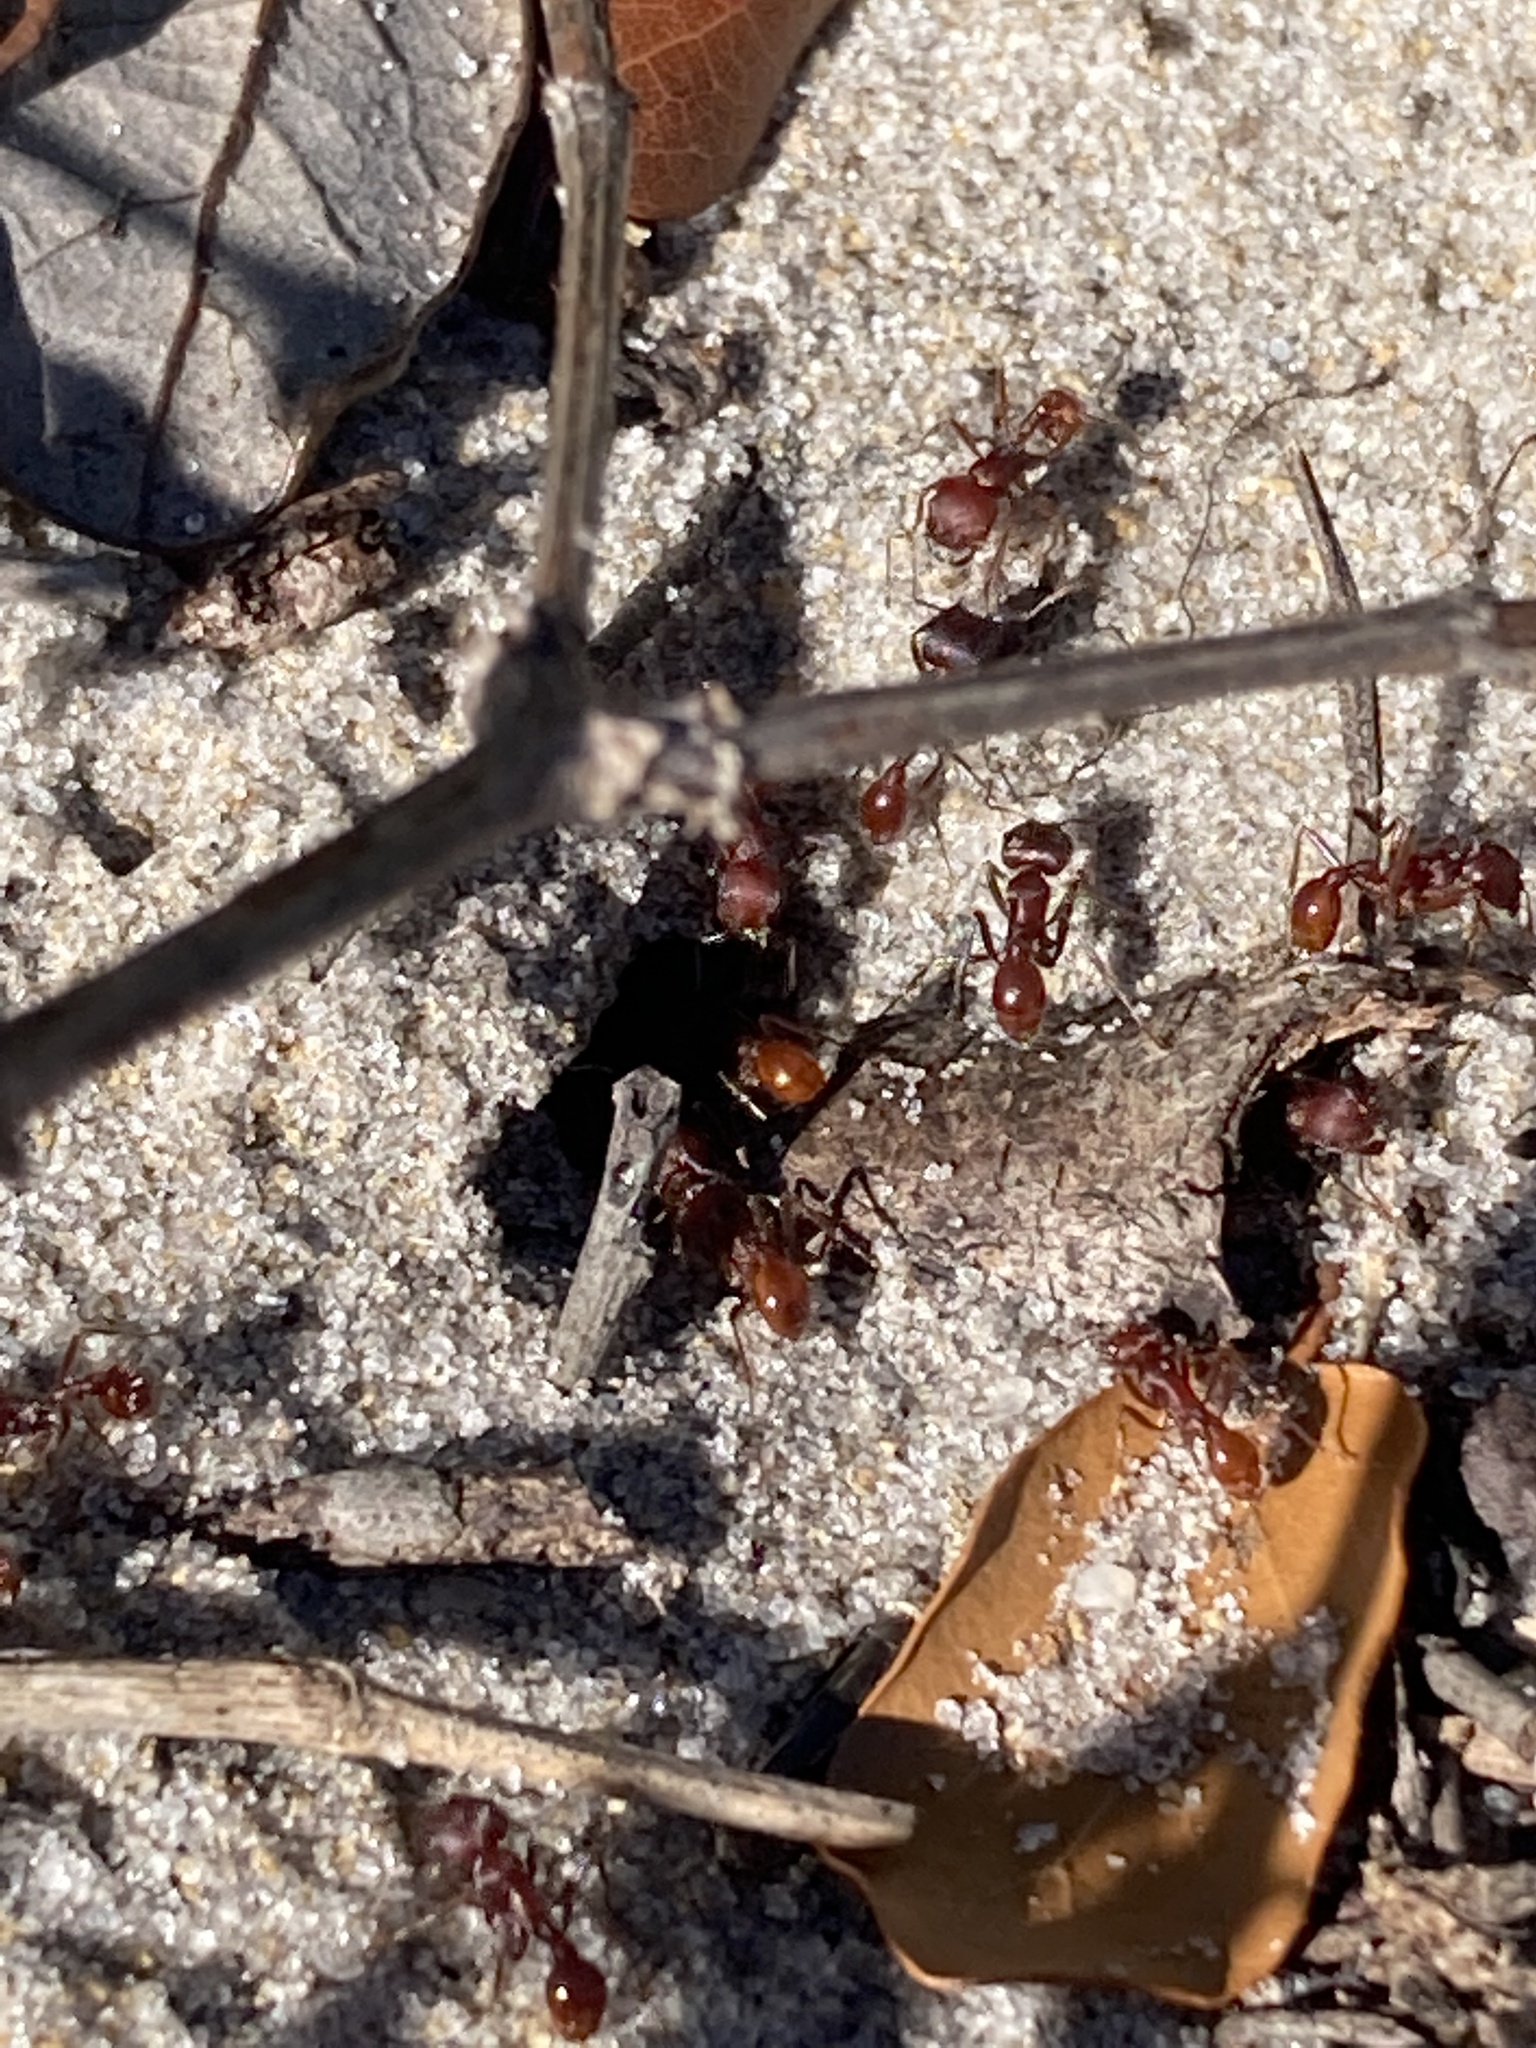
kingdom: Animalia
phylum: Arthropoda
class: Insecta
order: Hymenoptera
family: Formicidae
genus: Pogonomyrmex
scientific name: Pogonomyrmex badius
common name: Florida harvester ant
